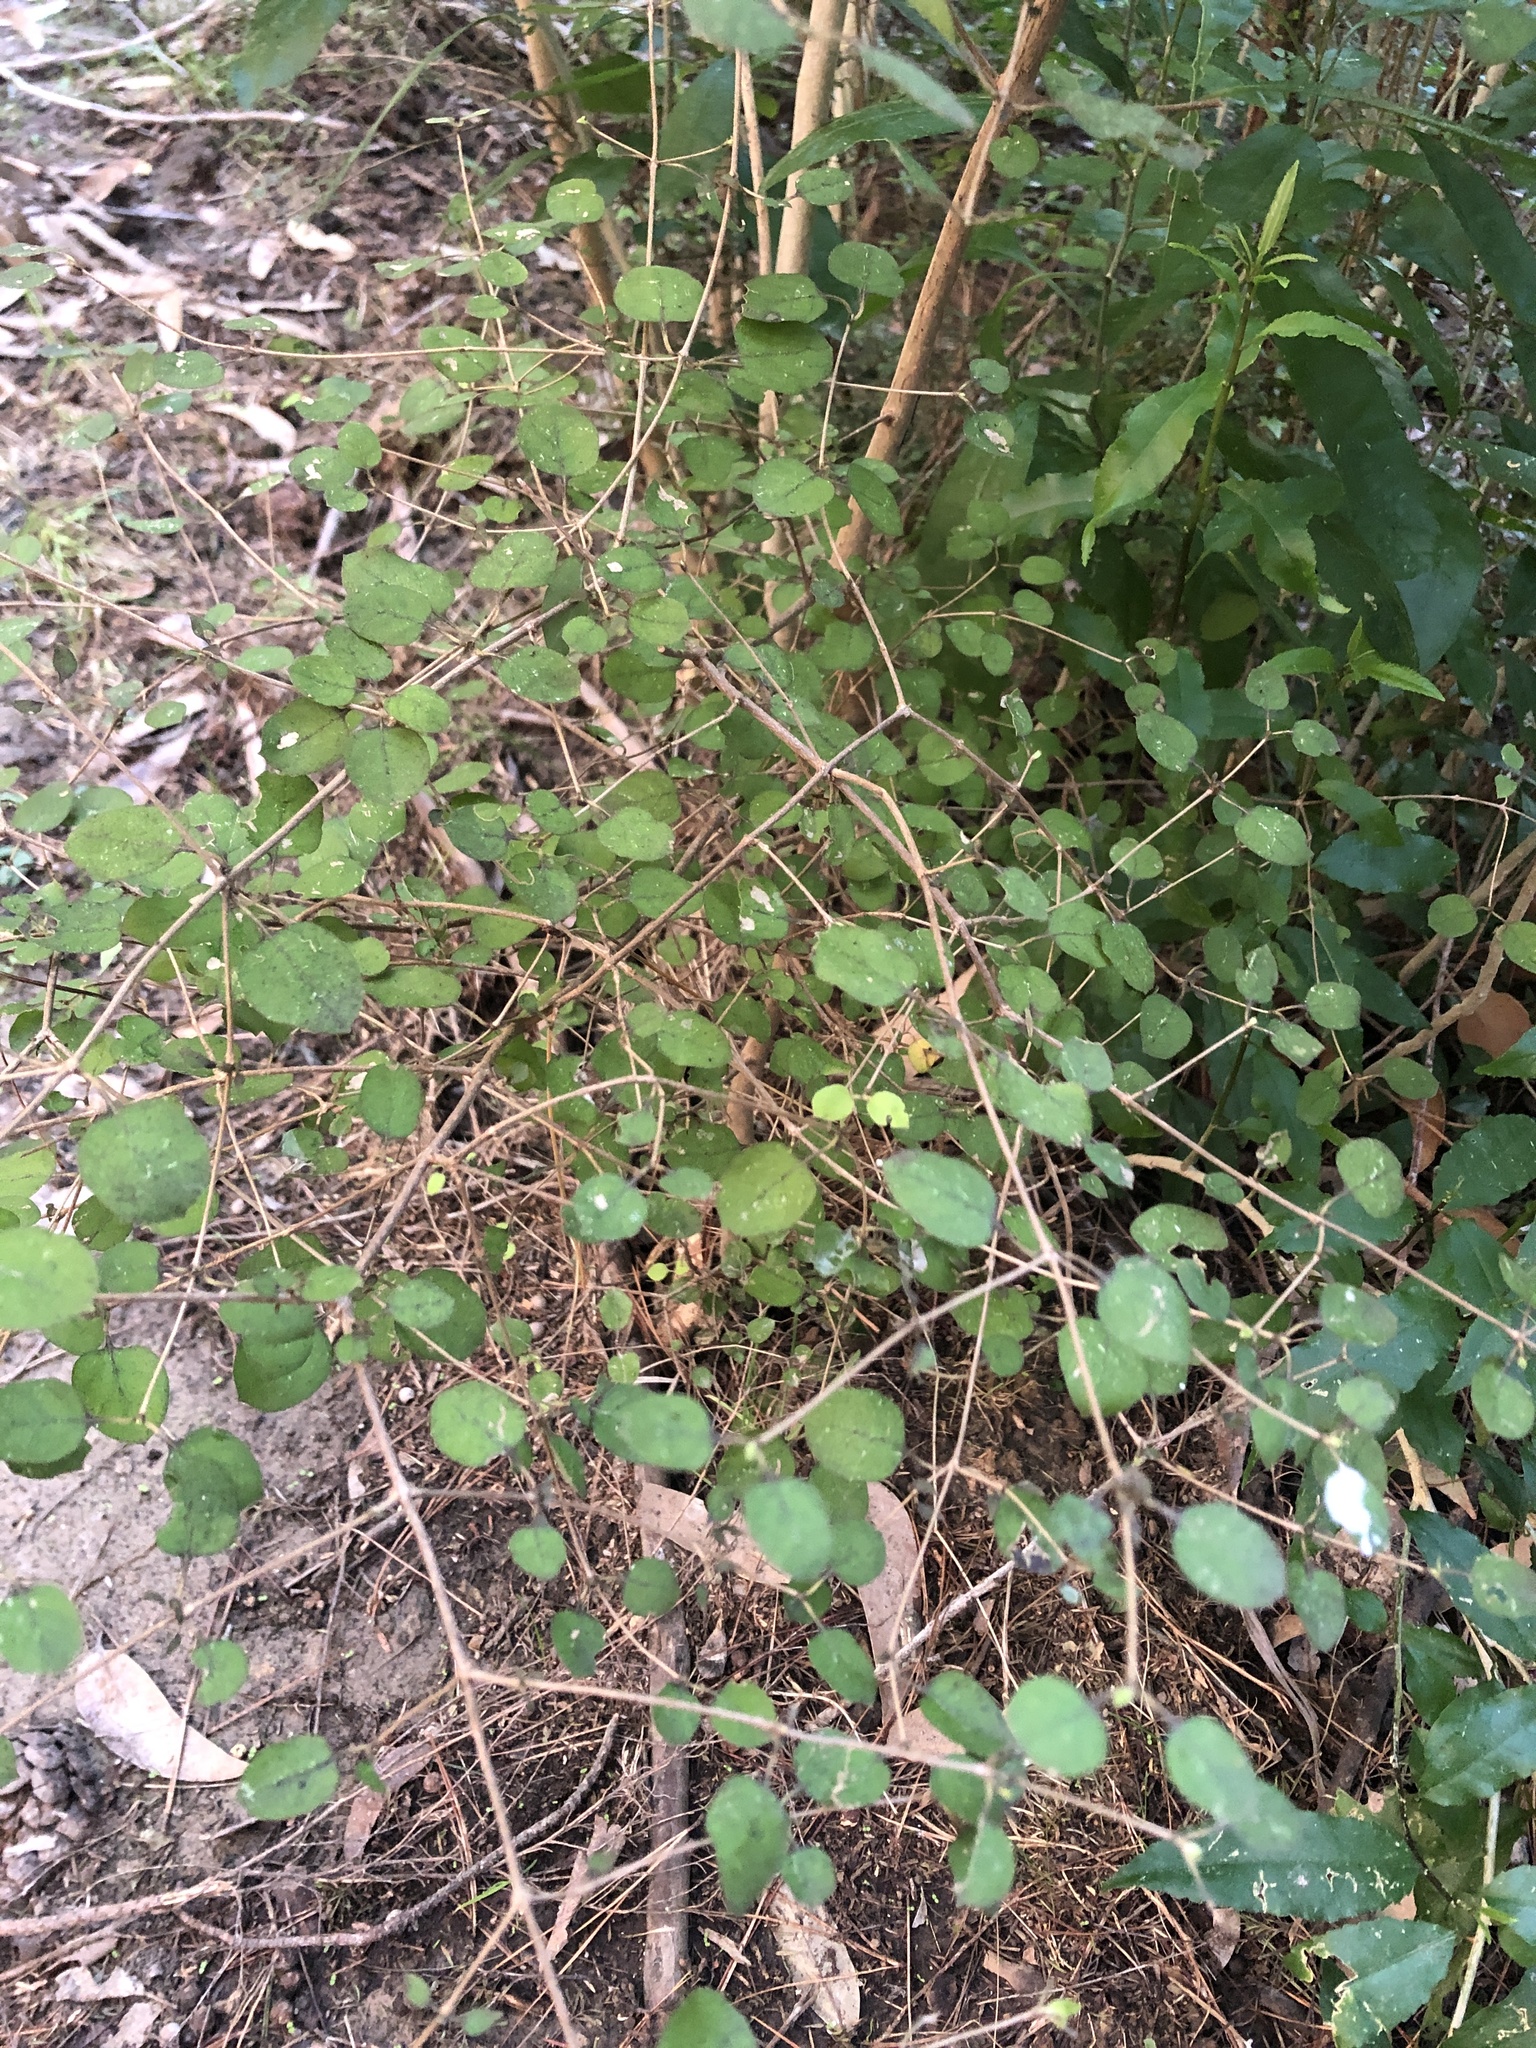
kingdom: Plantae
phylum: Tracheophyta
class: Magnoliopsida
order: Gentianales
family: Rubiaceae
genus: Coprosma
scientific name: Coprosma rotundifolia
